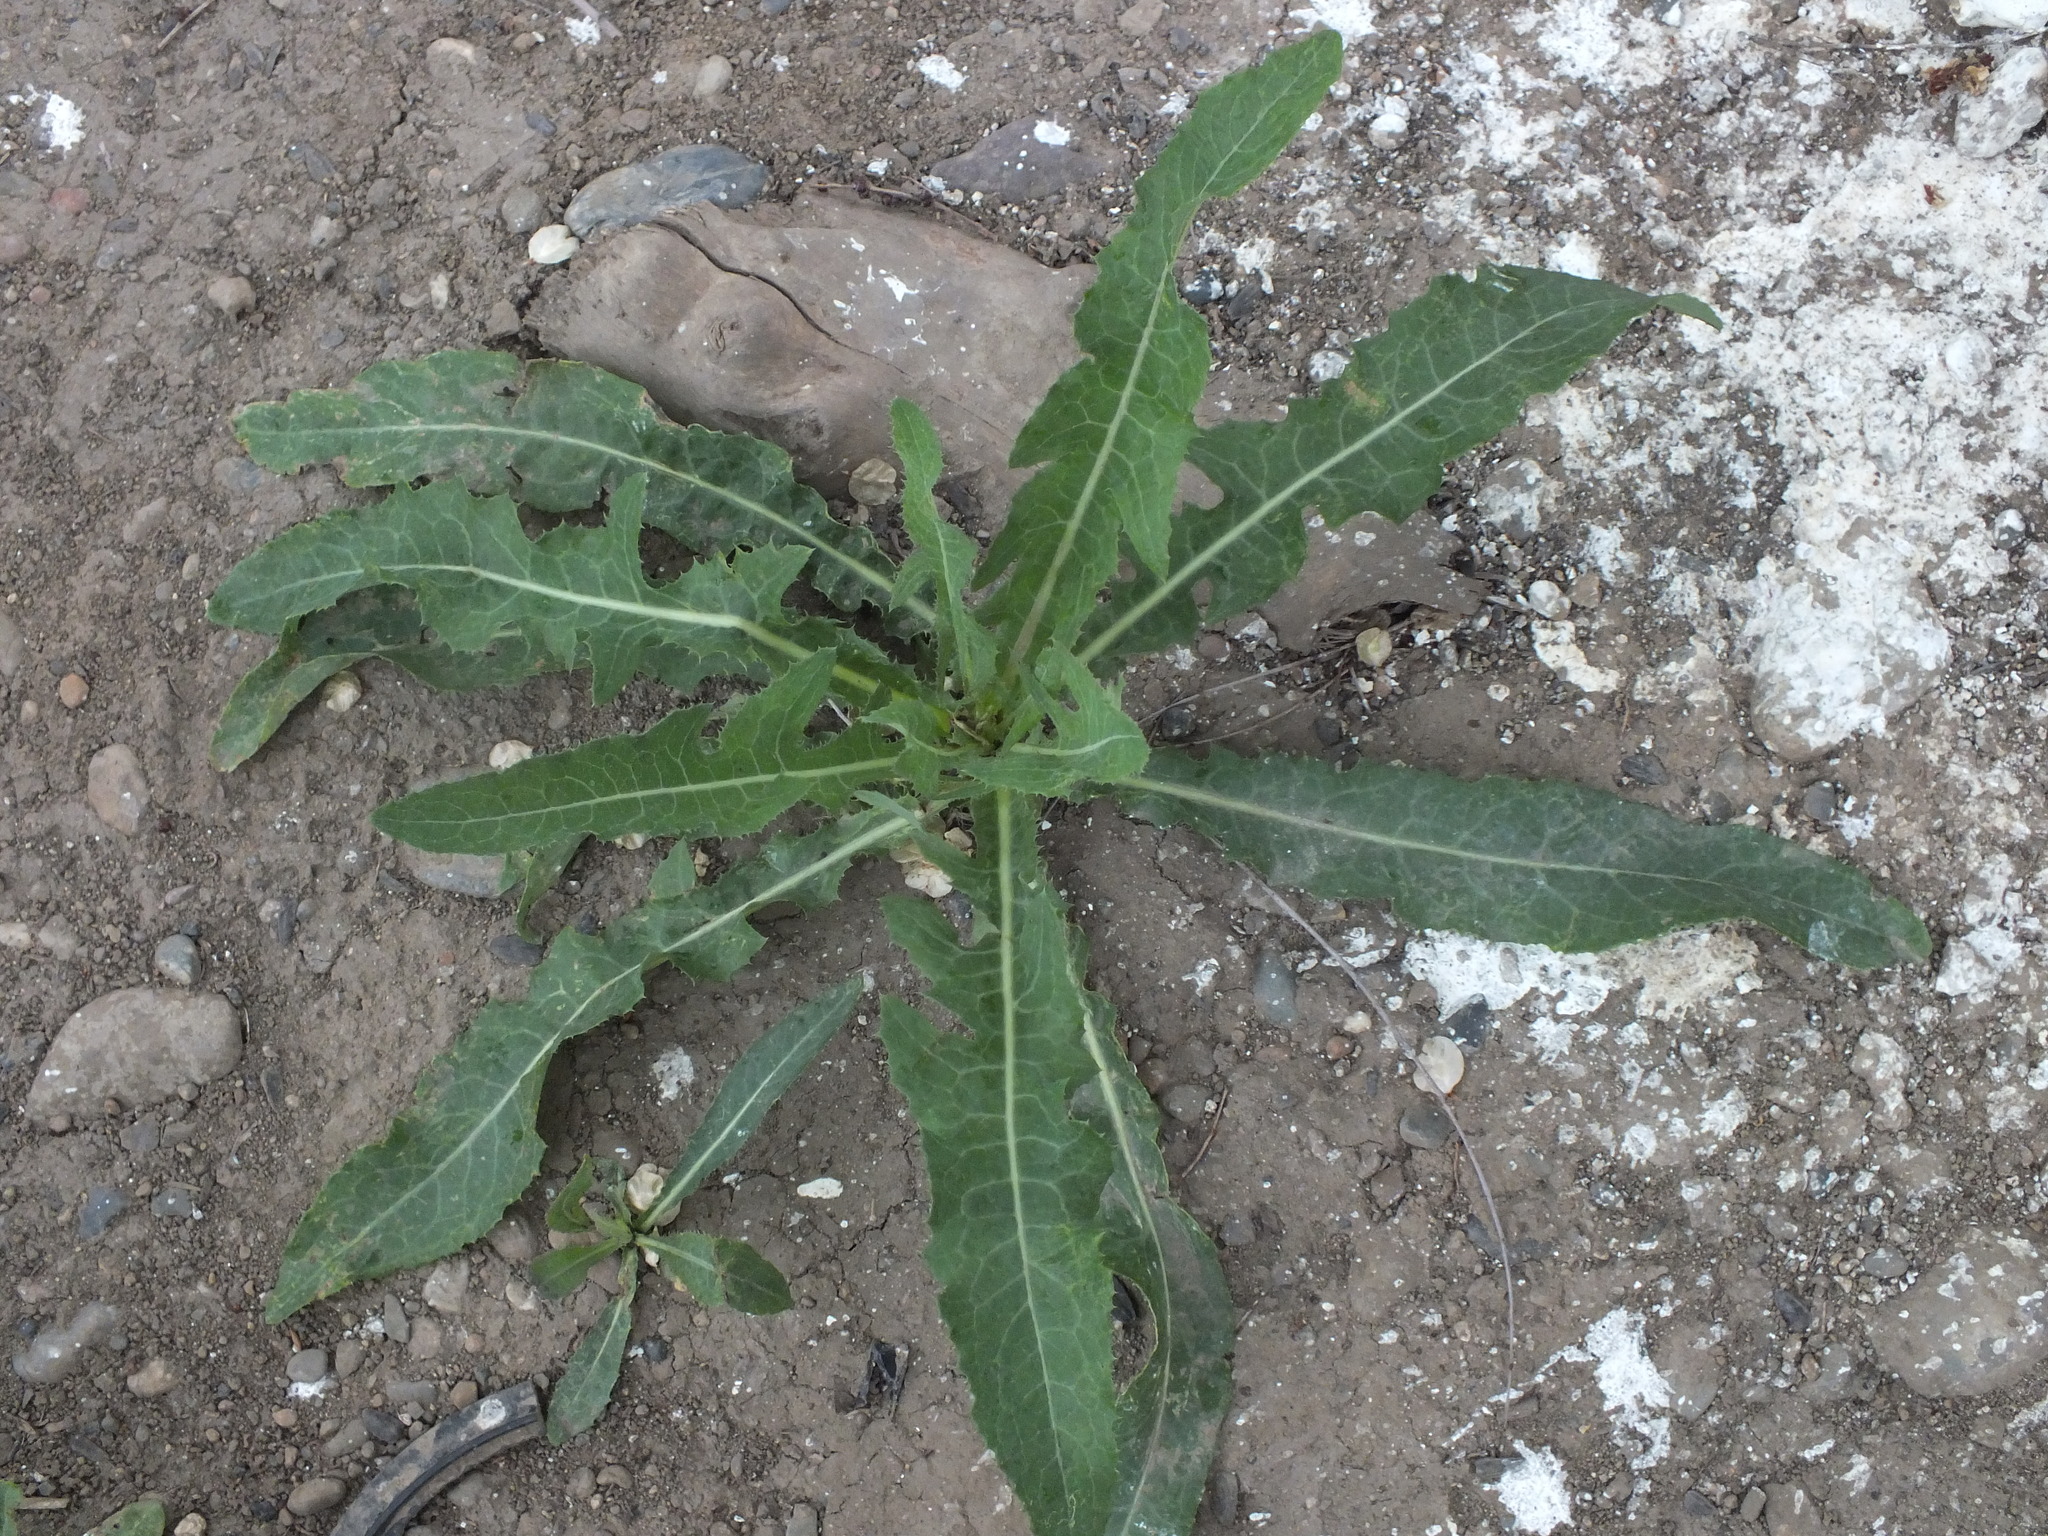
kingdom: Plantae
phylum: Tracheophyta
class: Magnoliopsida
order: Asterales
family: Asteraceae
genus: Sonchus
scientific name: Sonchus arvensis
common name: Perennial sow-thistle
